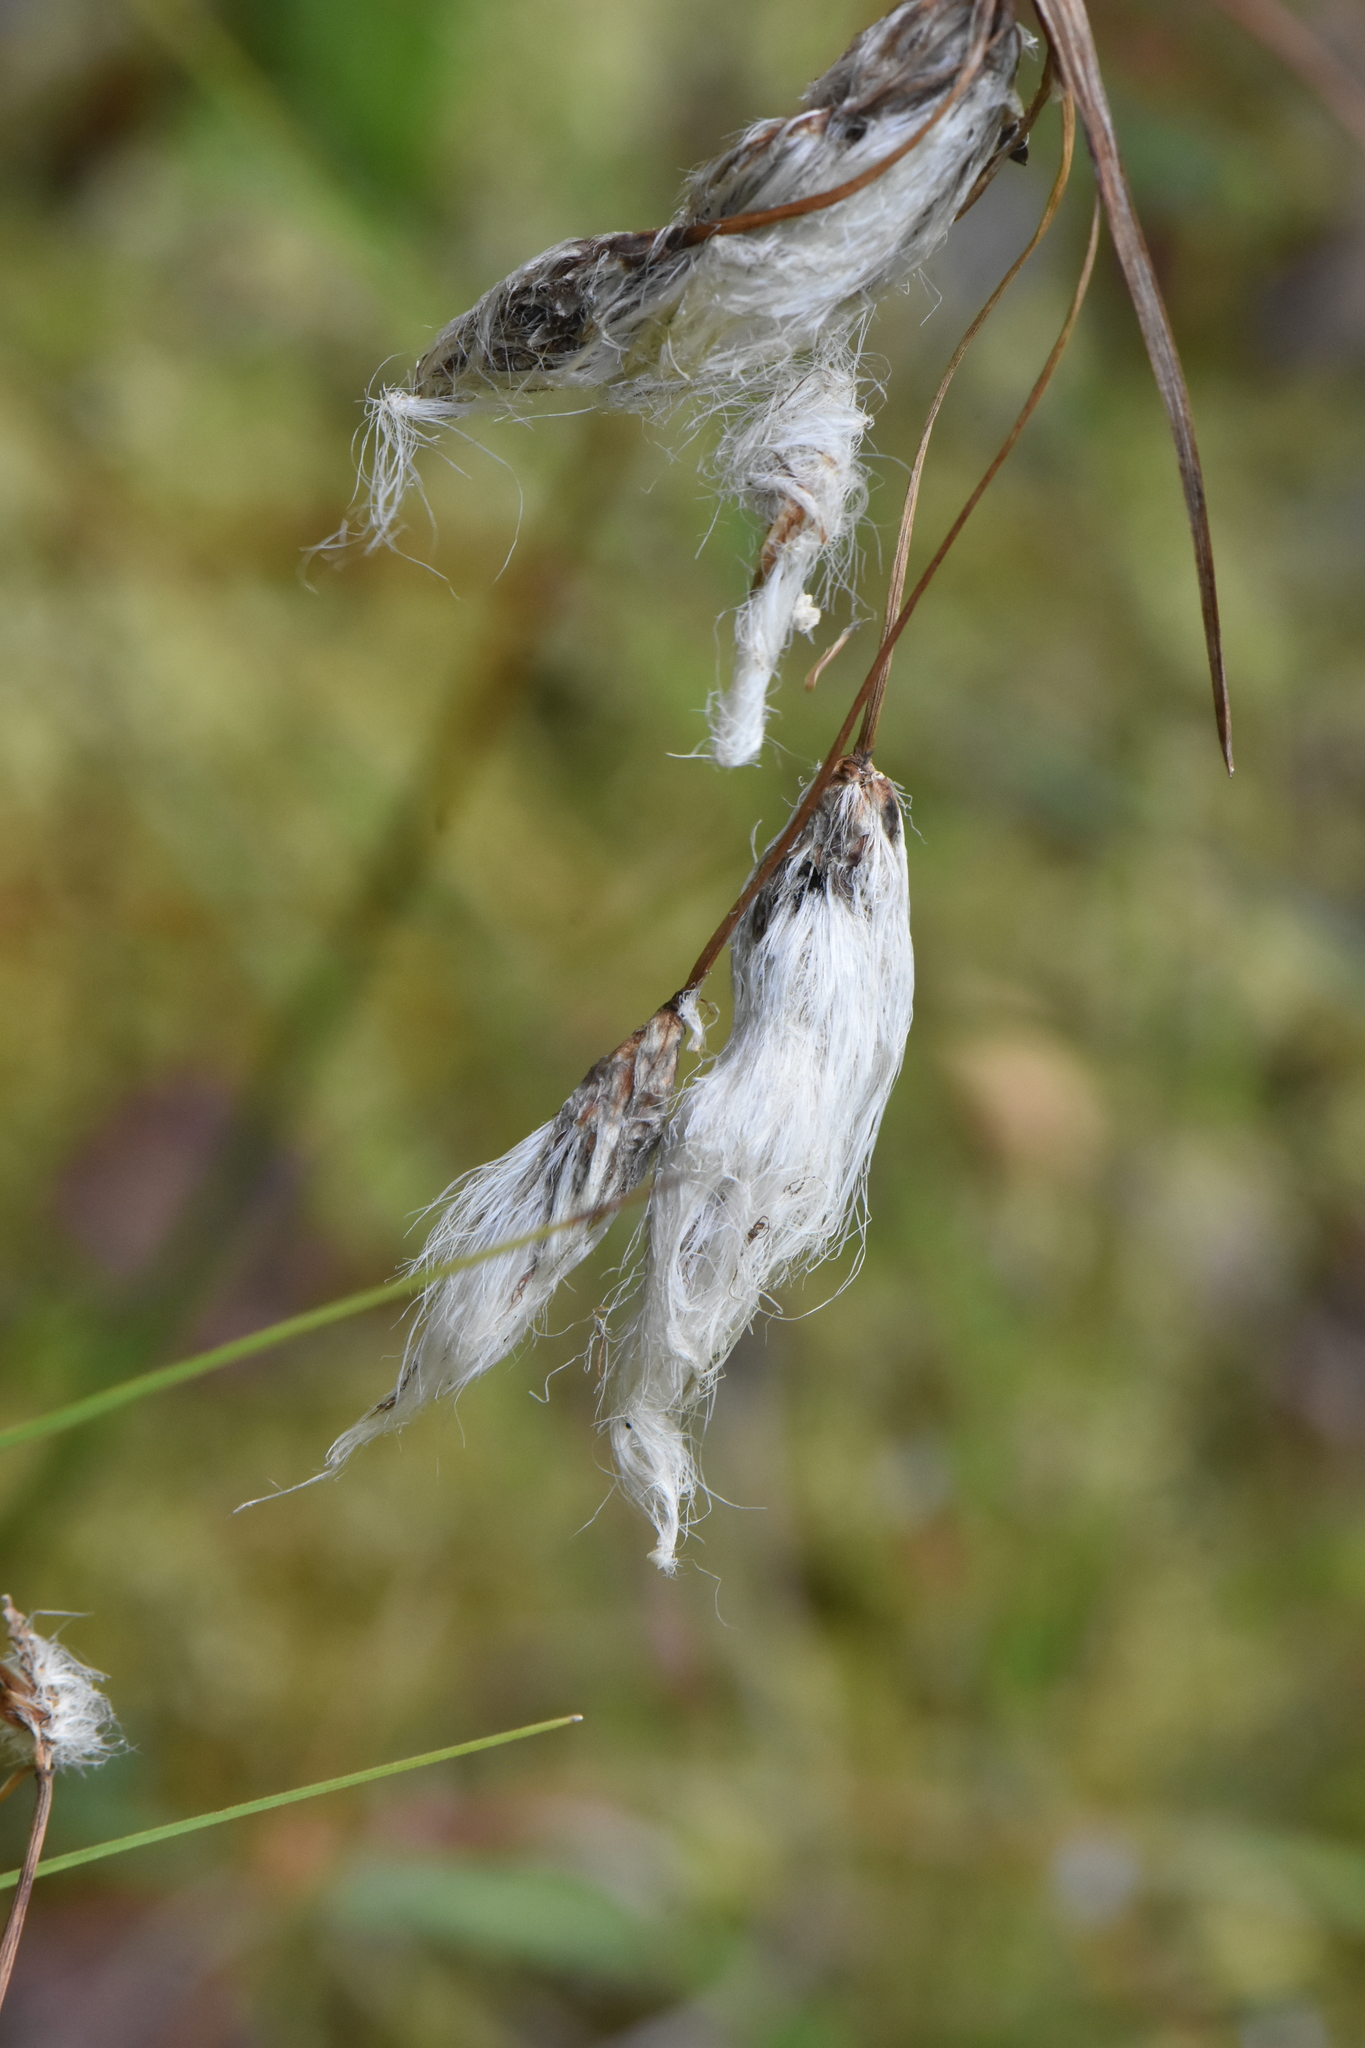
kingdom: Plantae
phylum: Tracheophyta
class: Liliopsida
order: Poales
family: Cyperaceae
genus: Eriophorum
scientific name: Eriophorum angustifolium
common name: Common cottongrass
